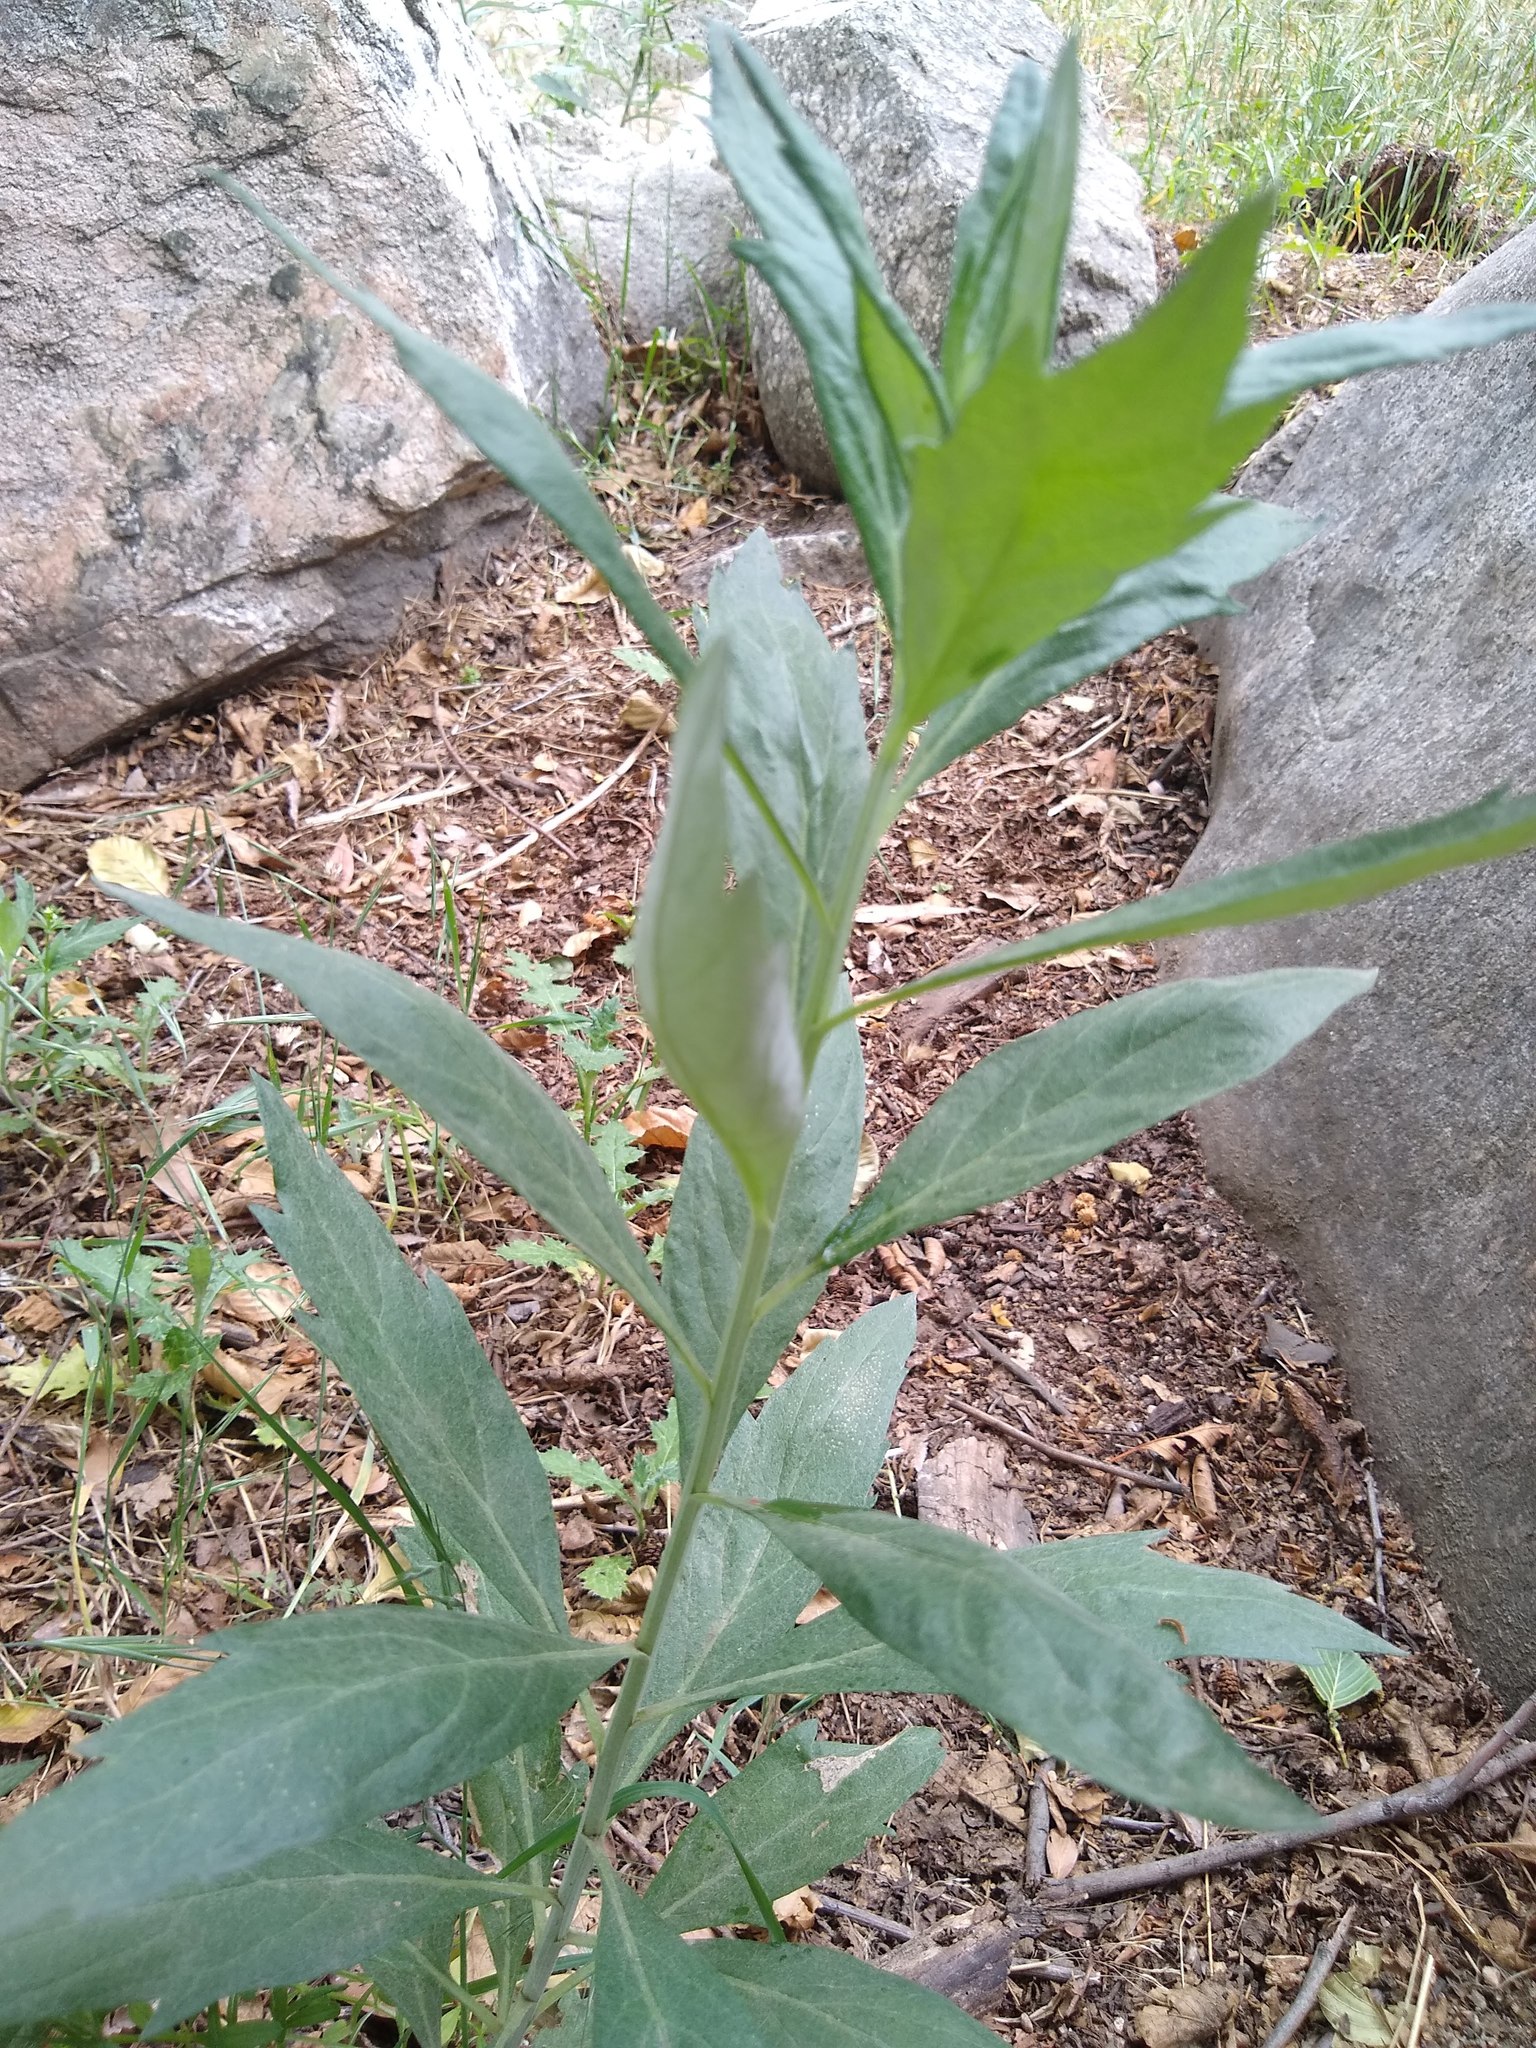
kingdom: Plantae
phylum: Tracheophyta
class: Magnoliopsida
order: Asterales
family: Asteraceae
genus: Artemisia
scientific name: Artemisia douglasiana
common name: Northwest mugwort
